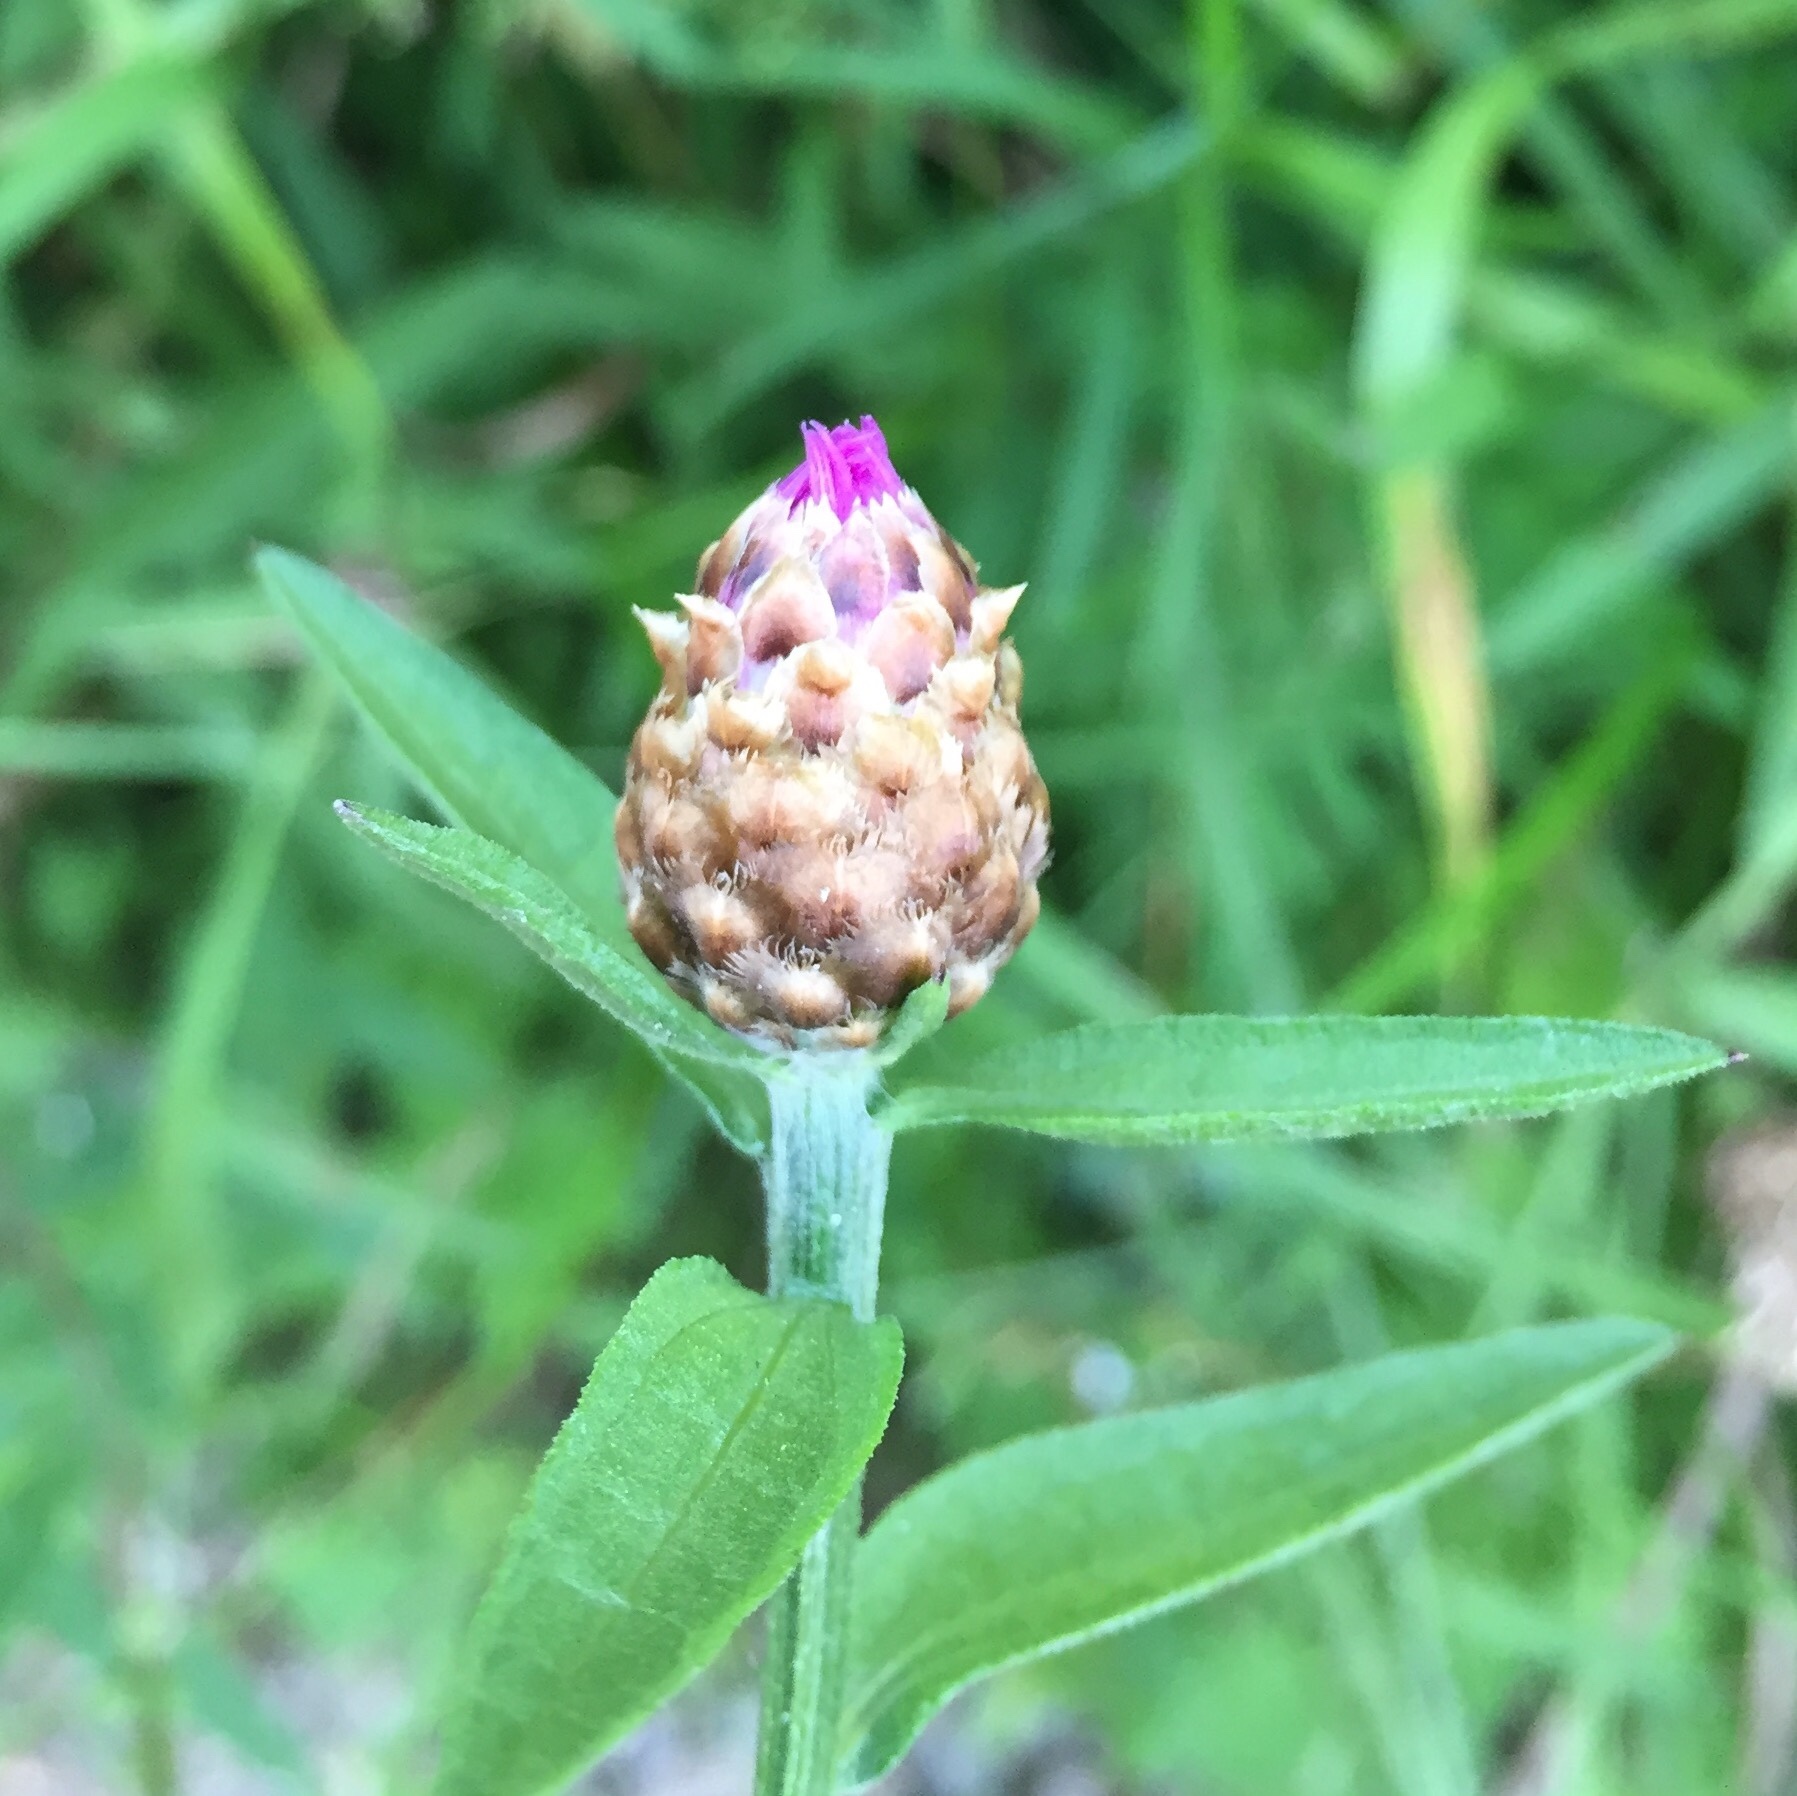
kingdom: Plantae
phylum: Tracheophyta
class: Magnoliopsida
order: Asterales
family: Asteraceae
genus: Centaurea
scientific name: Centaurea jacea
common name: Brown knapweed
